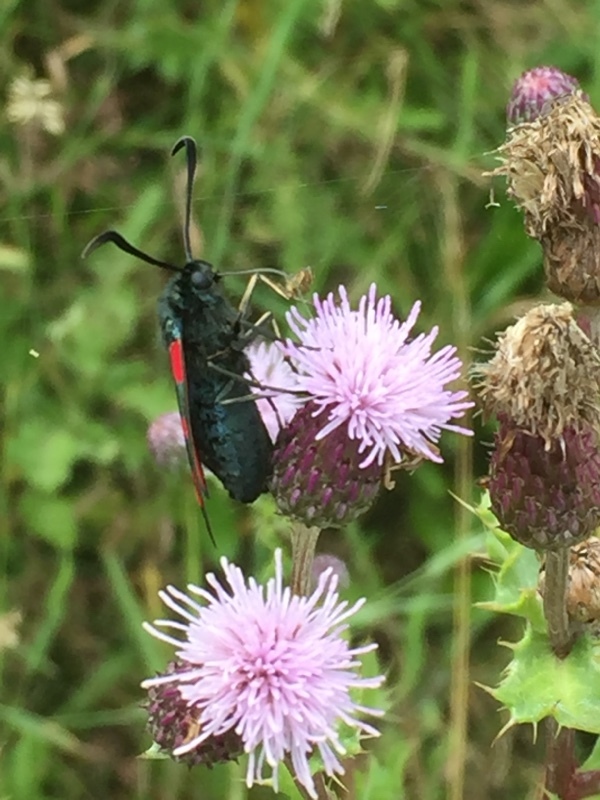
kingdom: Animalia
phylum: Arthropoda
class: Insecta
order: Lepidoptera
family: Zygaenidae
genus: Zygaena
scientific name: Zygaena filipendulae
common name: Six-spot burnet
